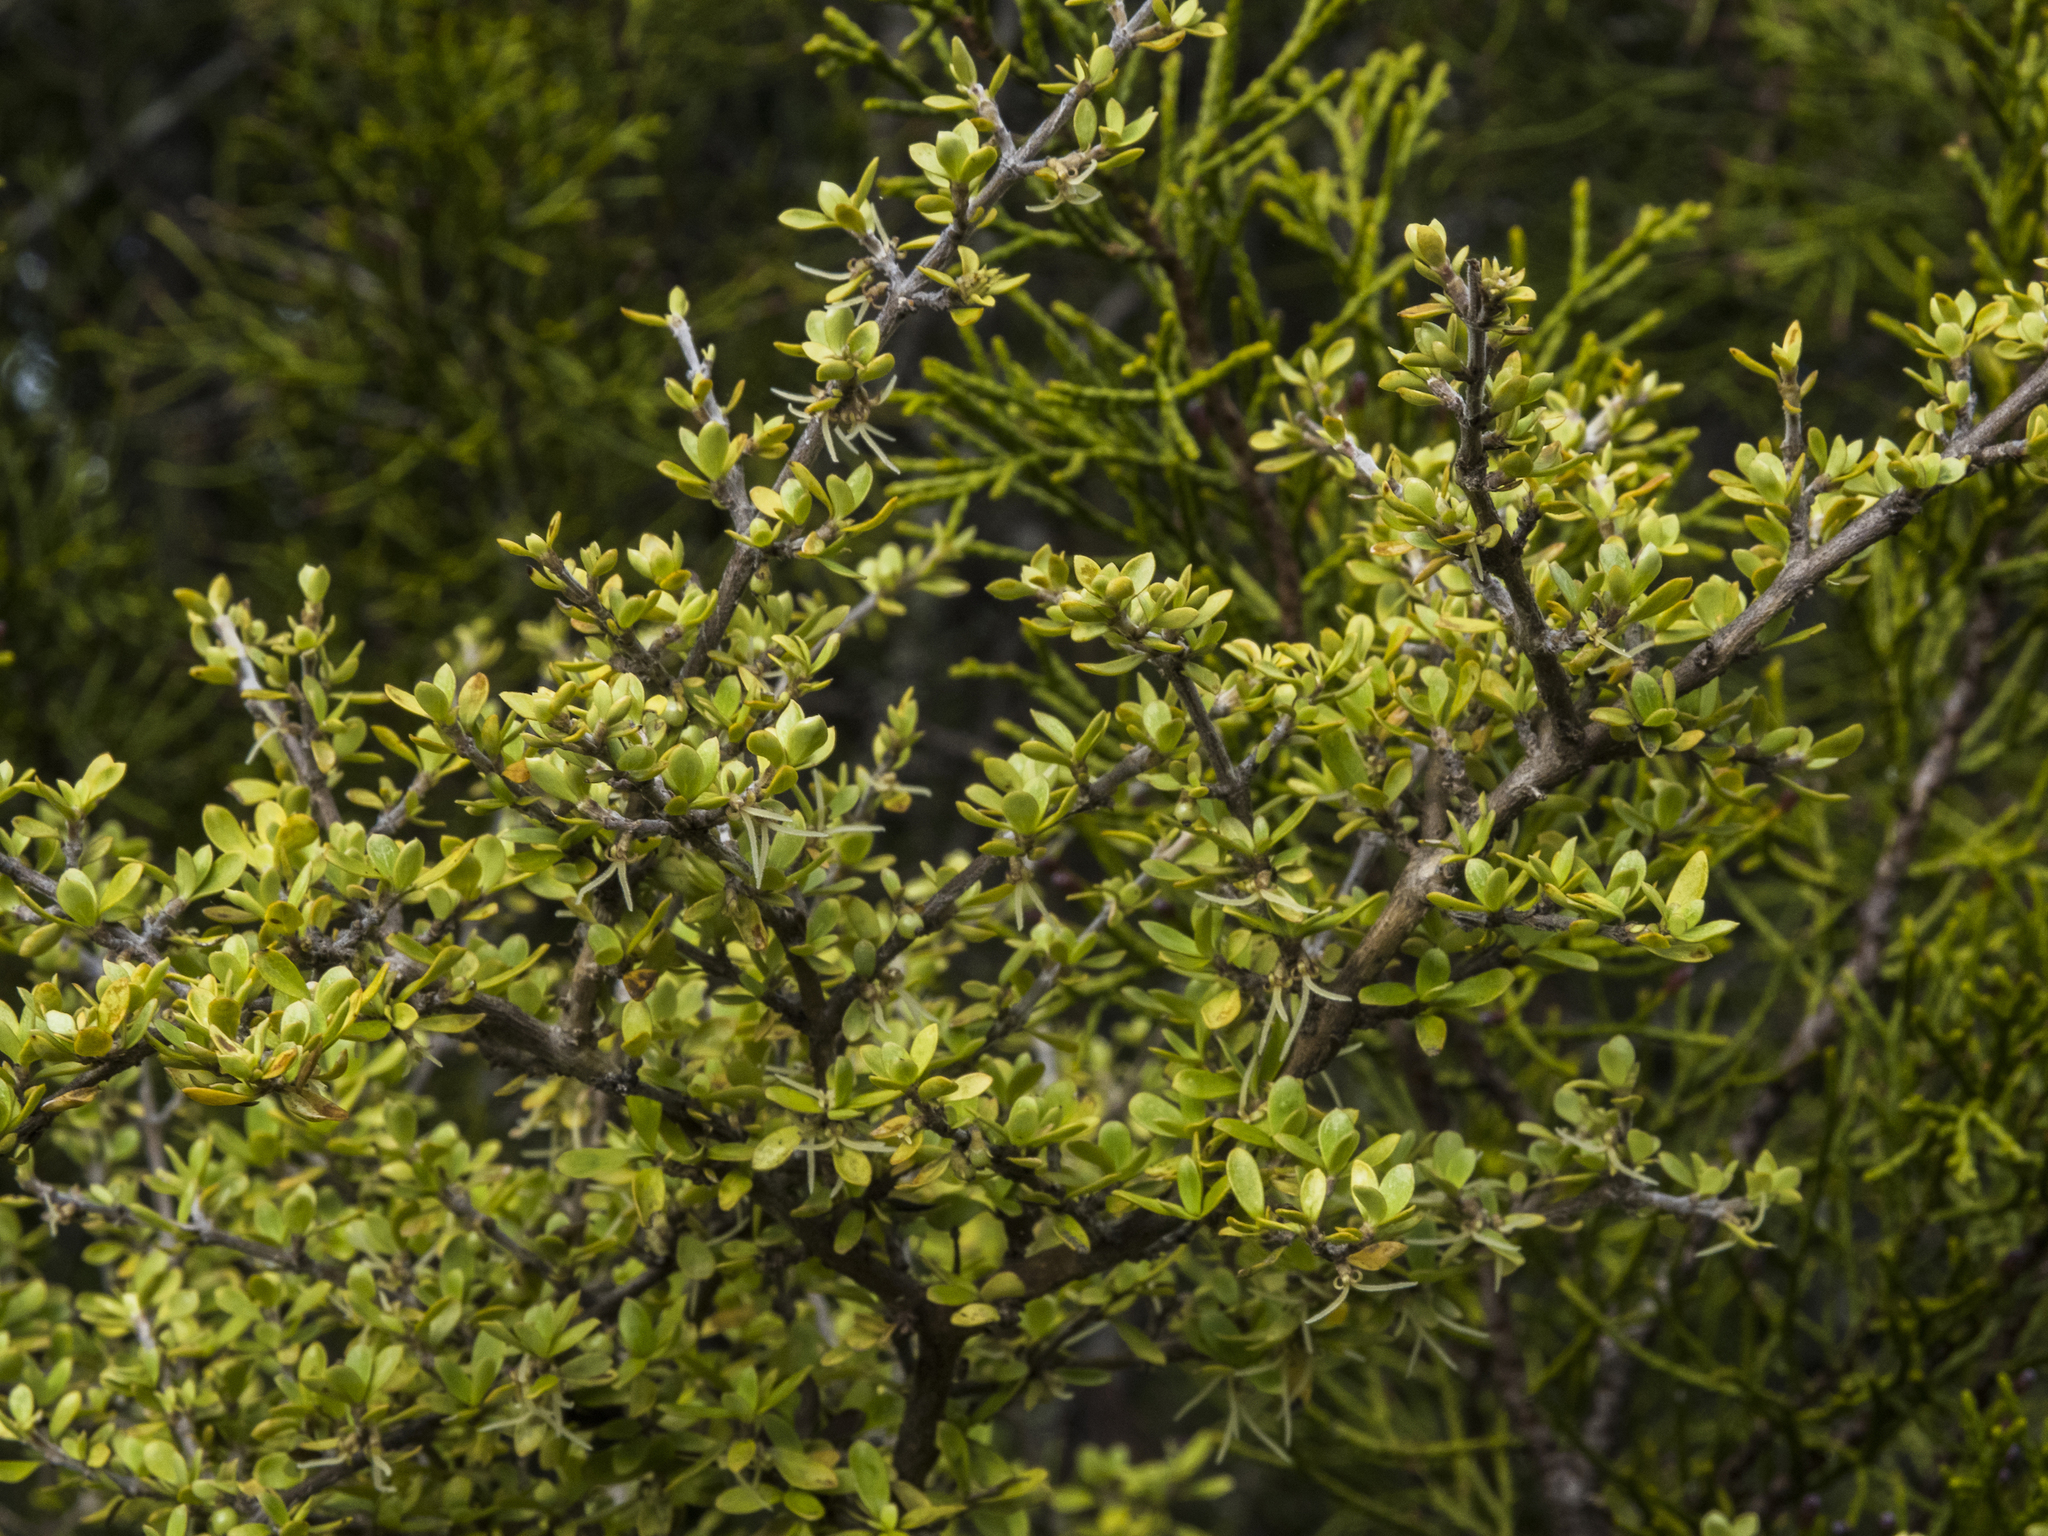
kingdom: Plantae
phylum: Tracheophyta
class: Magnoliopsida
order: Gentianales
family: Rubiaceae
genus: Coprosma
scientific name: Coprosma dumosa
